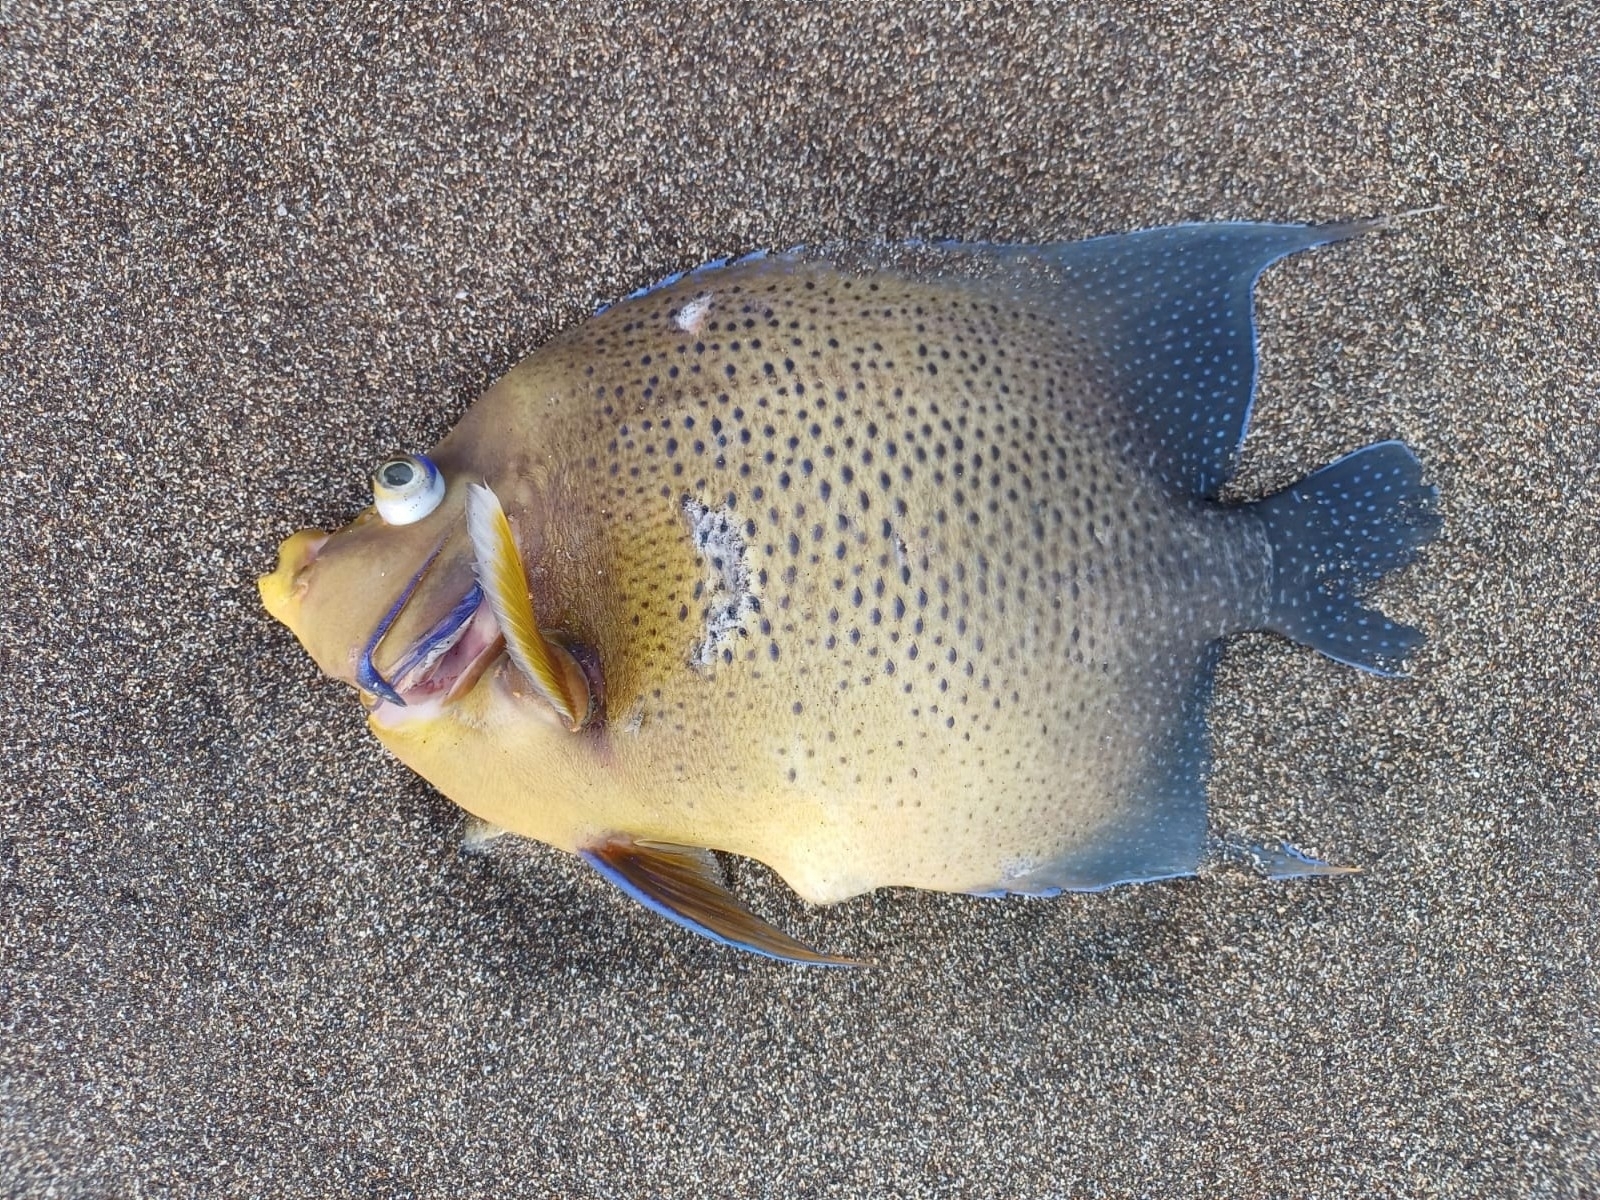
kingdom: Animalia
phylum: Chordata
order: Perciformes
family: Pomacanthidae
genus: Pomacanthus
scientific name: Pomacanthus semicirculatus
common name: Semicircle angelfish
